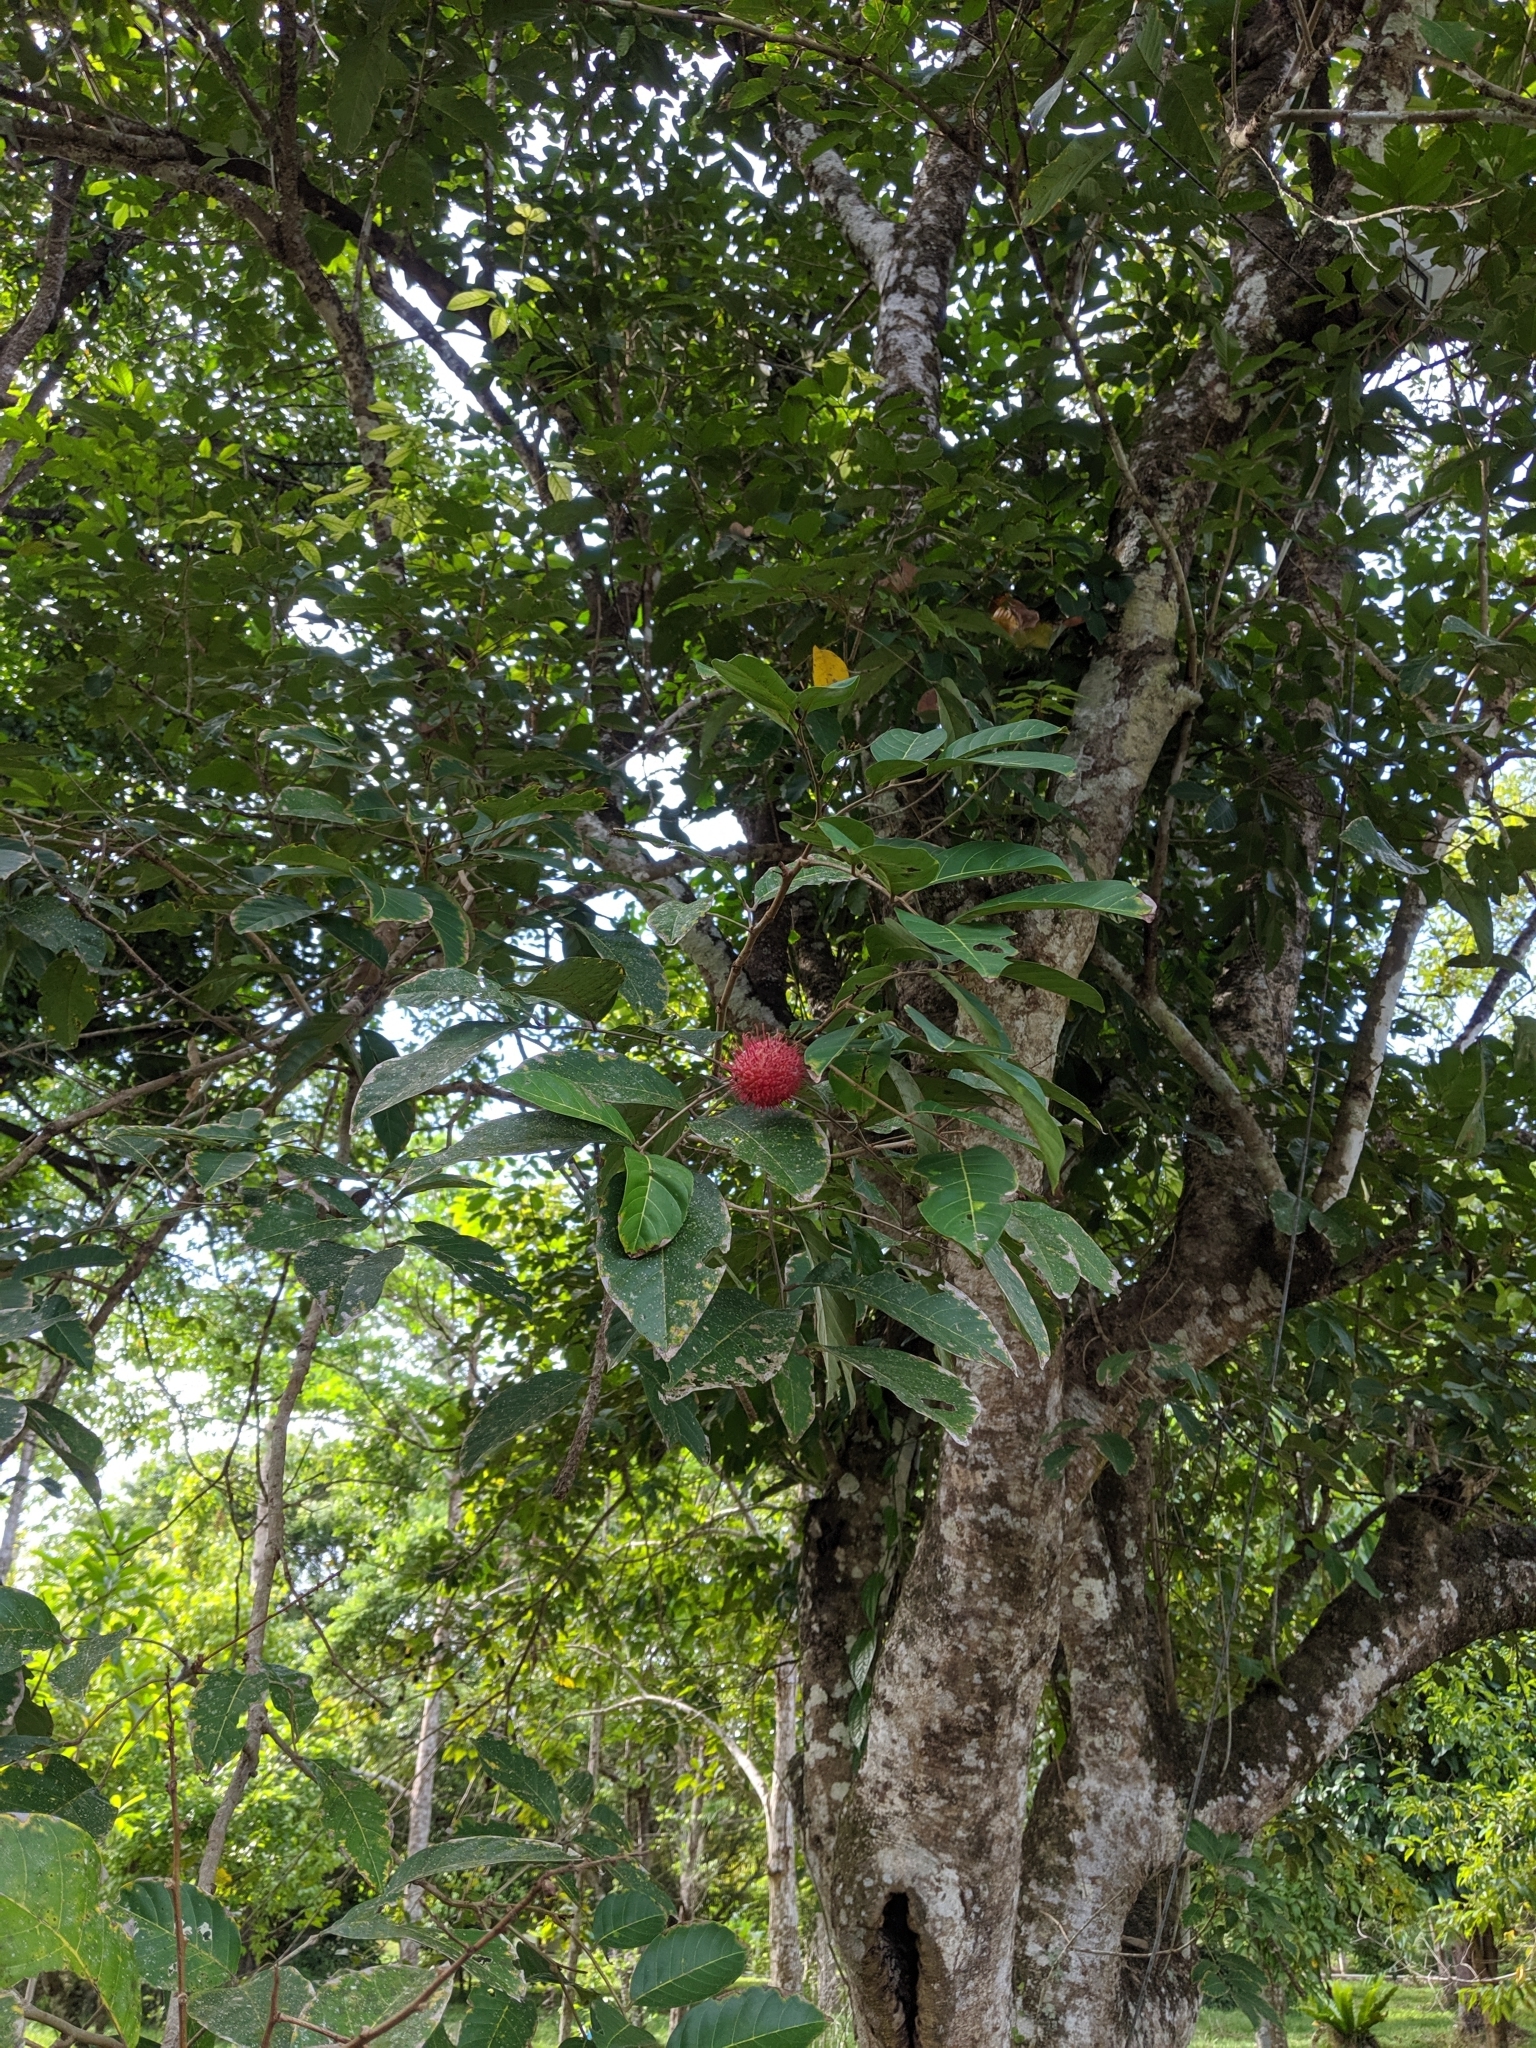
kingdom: Plantae
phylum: Tracheophyta
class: Magnoliopsida
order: Sapindales
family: Sapindaceae
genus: Nephelium
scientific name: Nephelium lappaceum
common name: Rambutan
